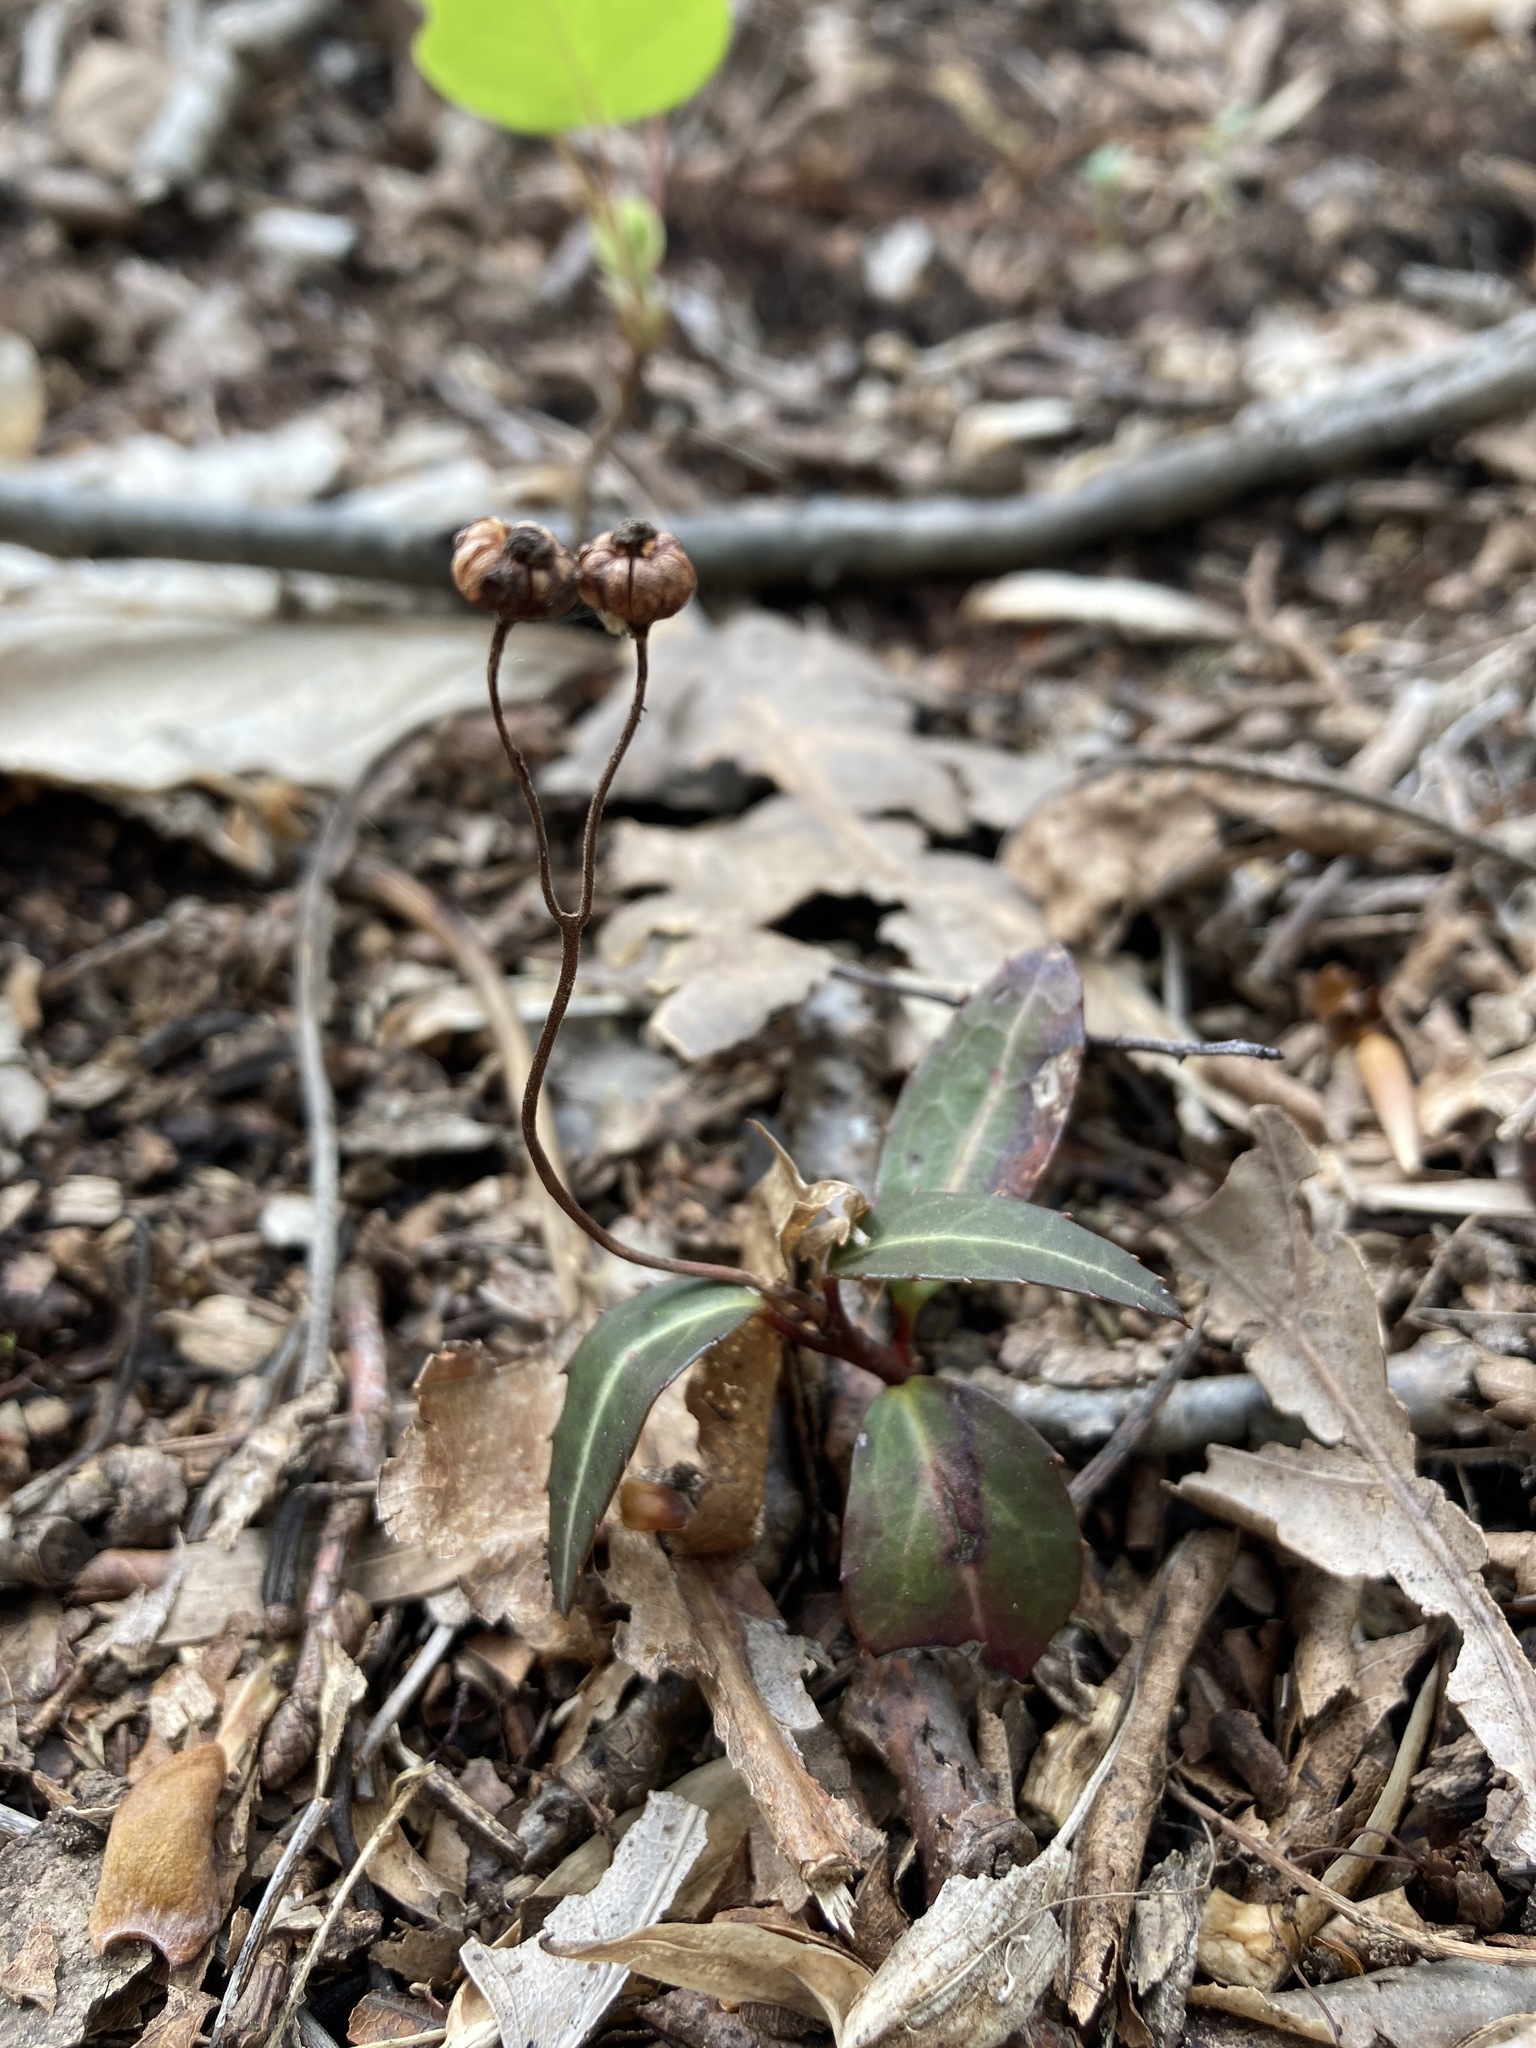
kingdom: Plantae
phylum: Tracheophyta
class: Magnoliopsida
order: Ericales
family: Ericaceae
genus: Chimaphila
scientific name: Chimaphila maculata
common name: Spotted pipsissewa
